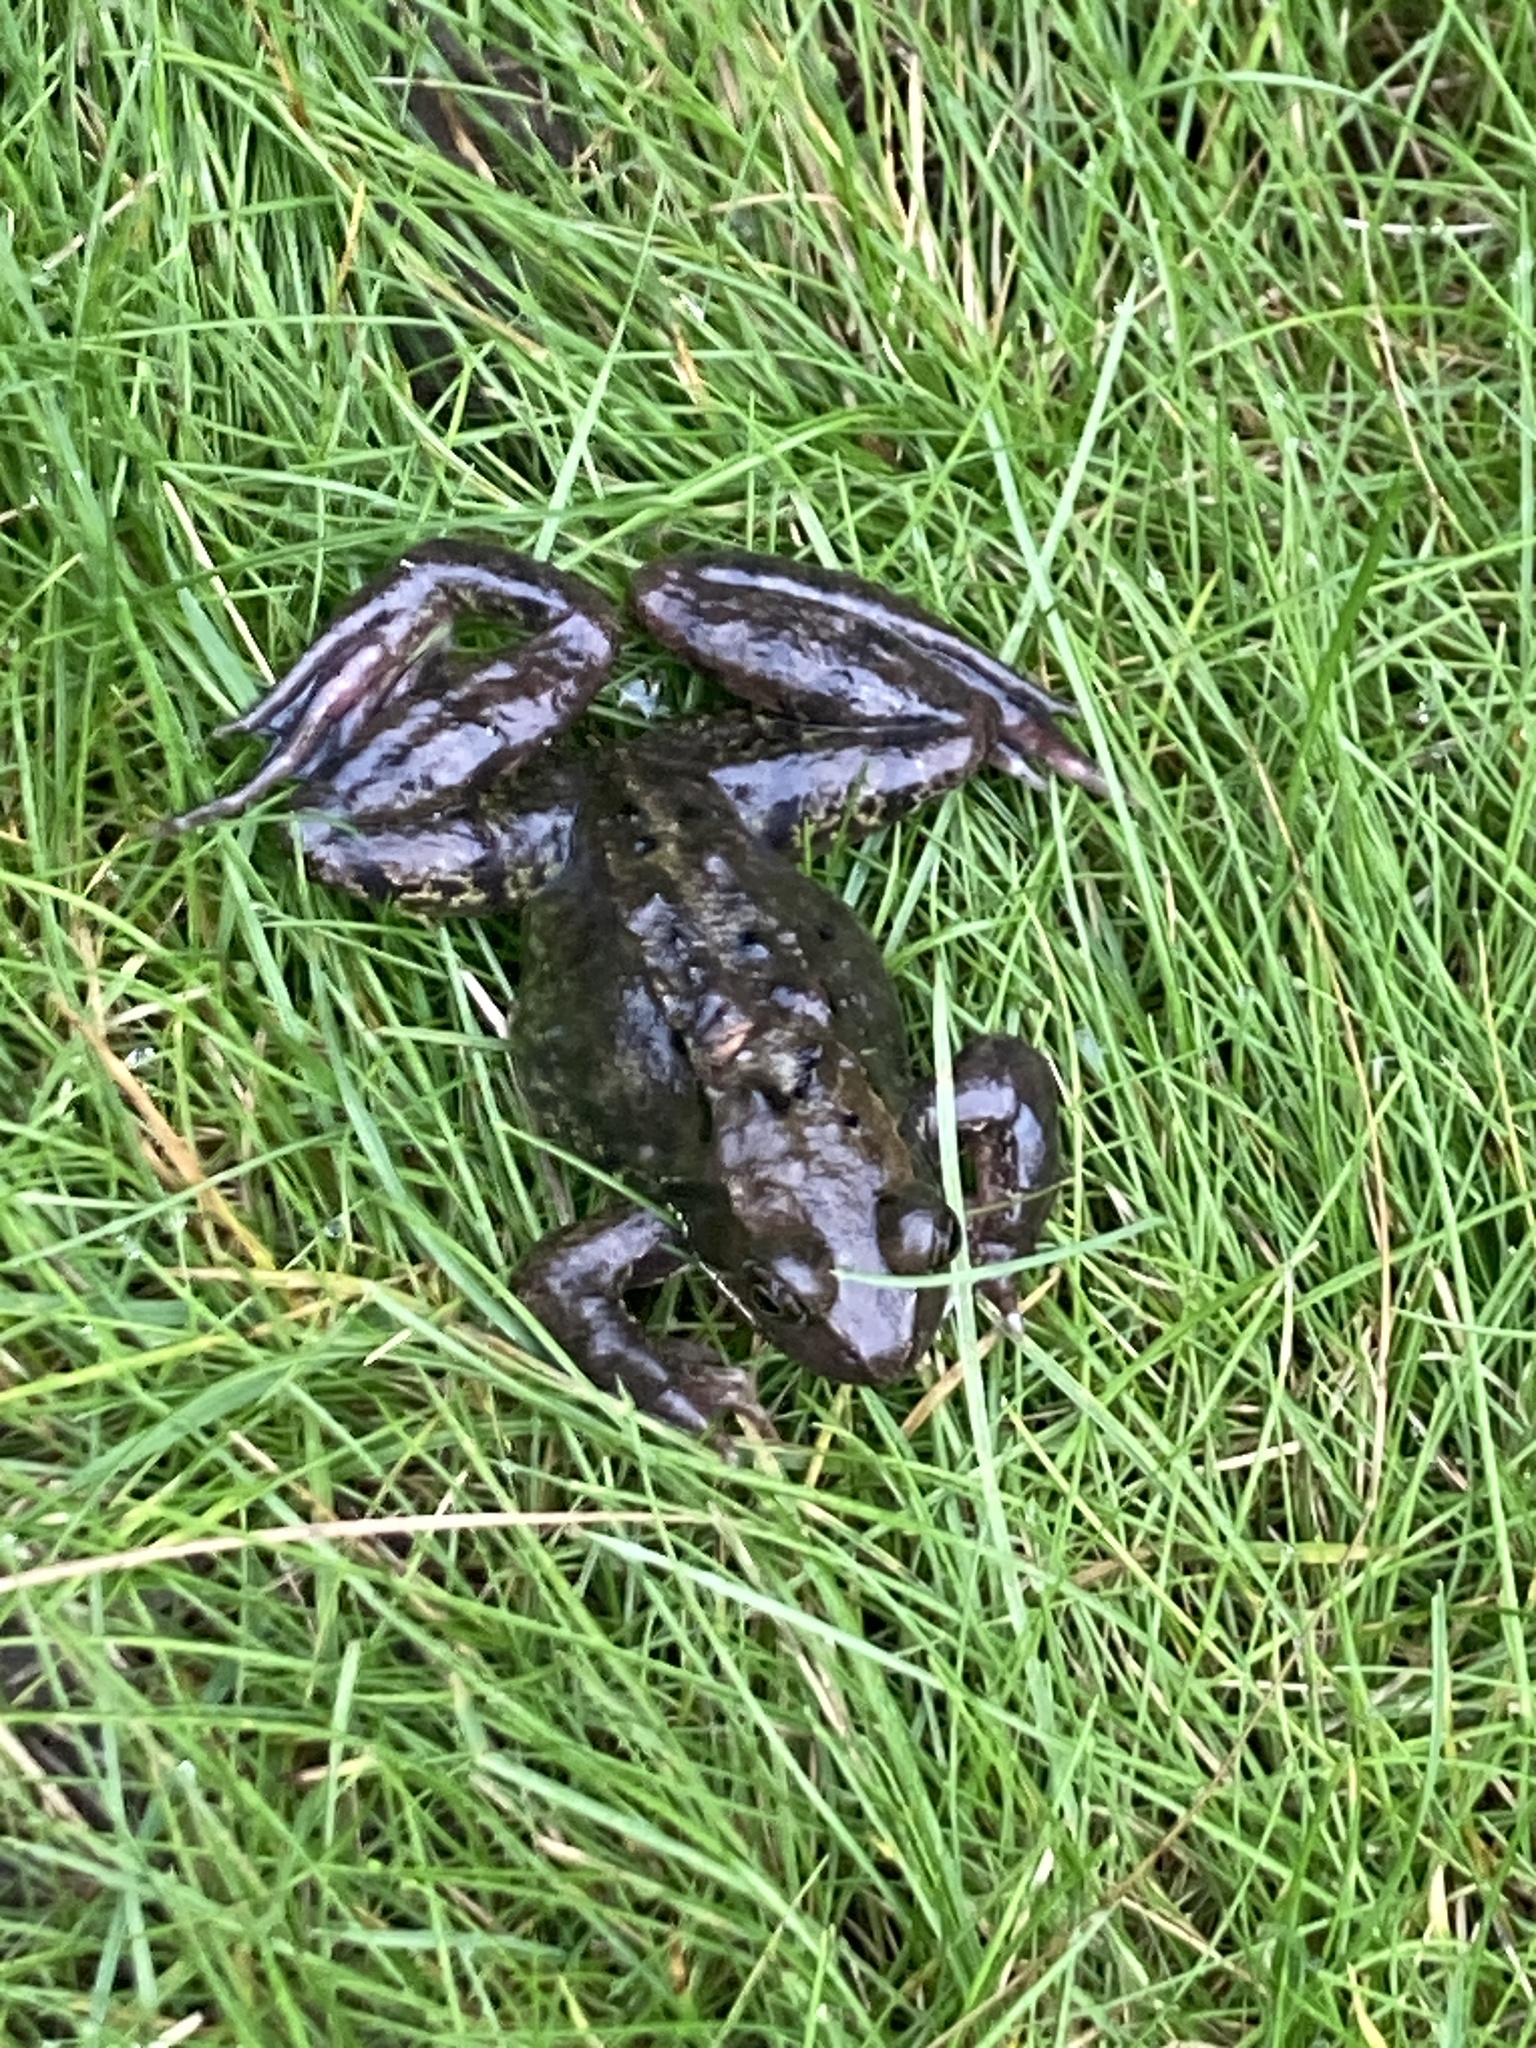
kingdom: Animalia
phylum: Chordata
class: Amphibia
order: Anura
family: Ranidae
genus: Rana
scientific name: Rana temporaria
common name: Common frog
